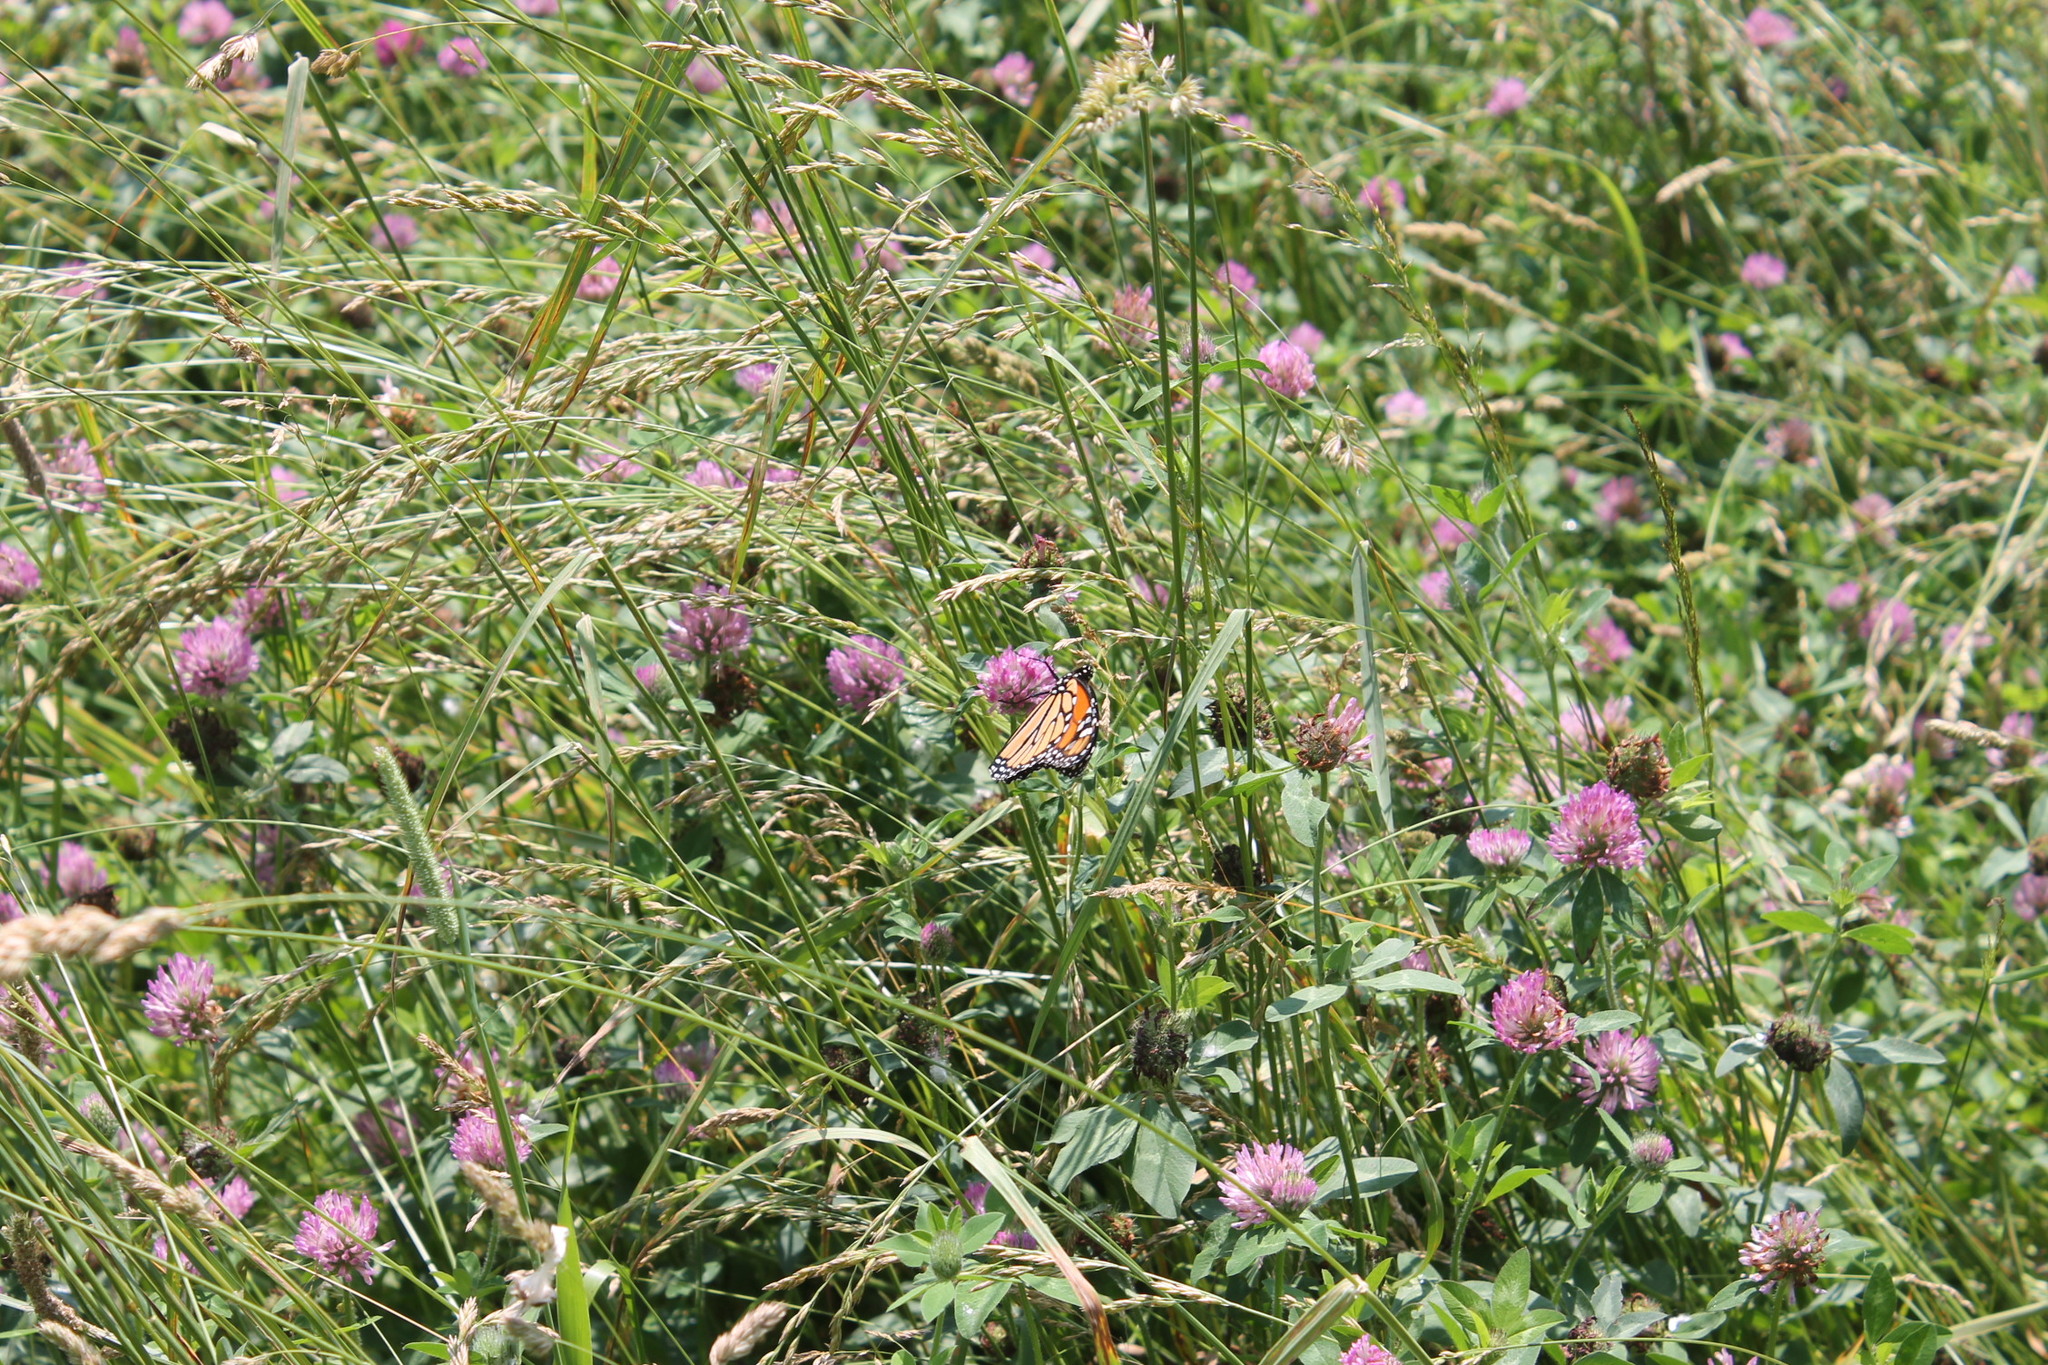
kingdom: Animalia
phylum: Arthropoda
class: Insecta
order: Lepidoptera
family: Nymphalidae
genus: Danaus
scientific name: Danaus plexippus
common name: Monarch
